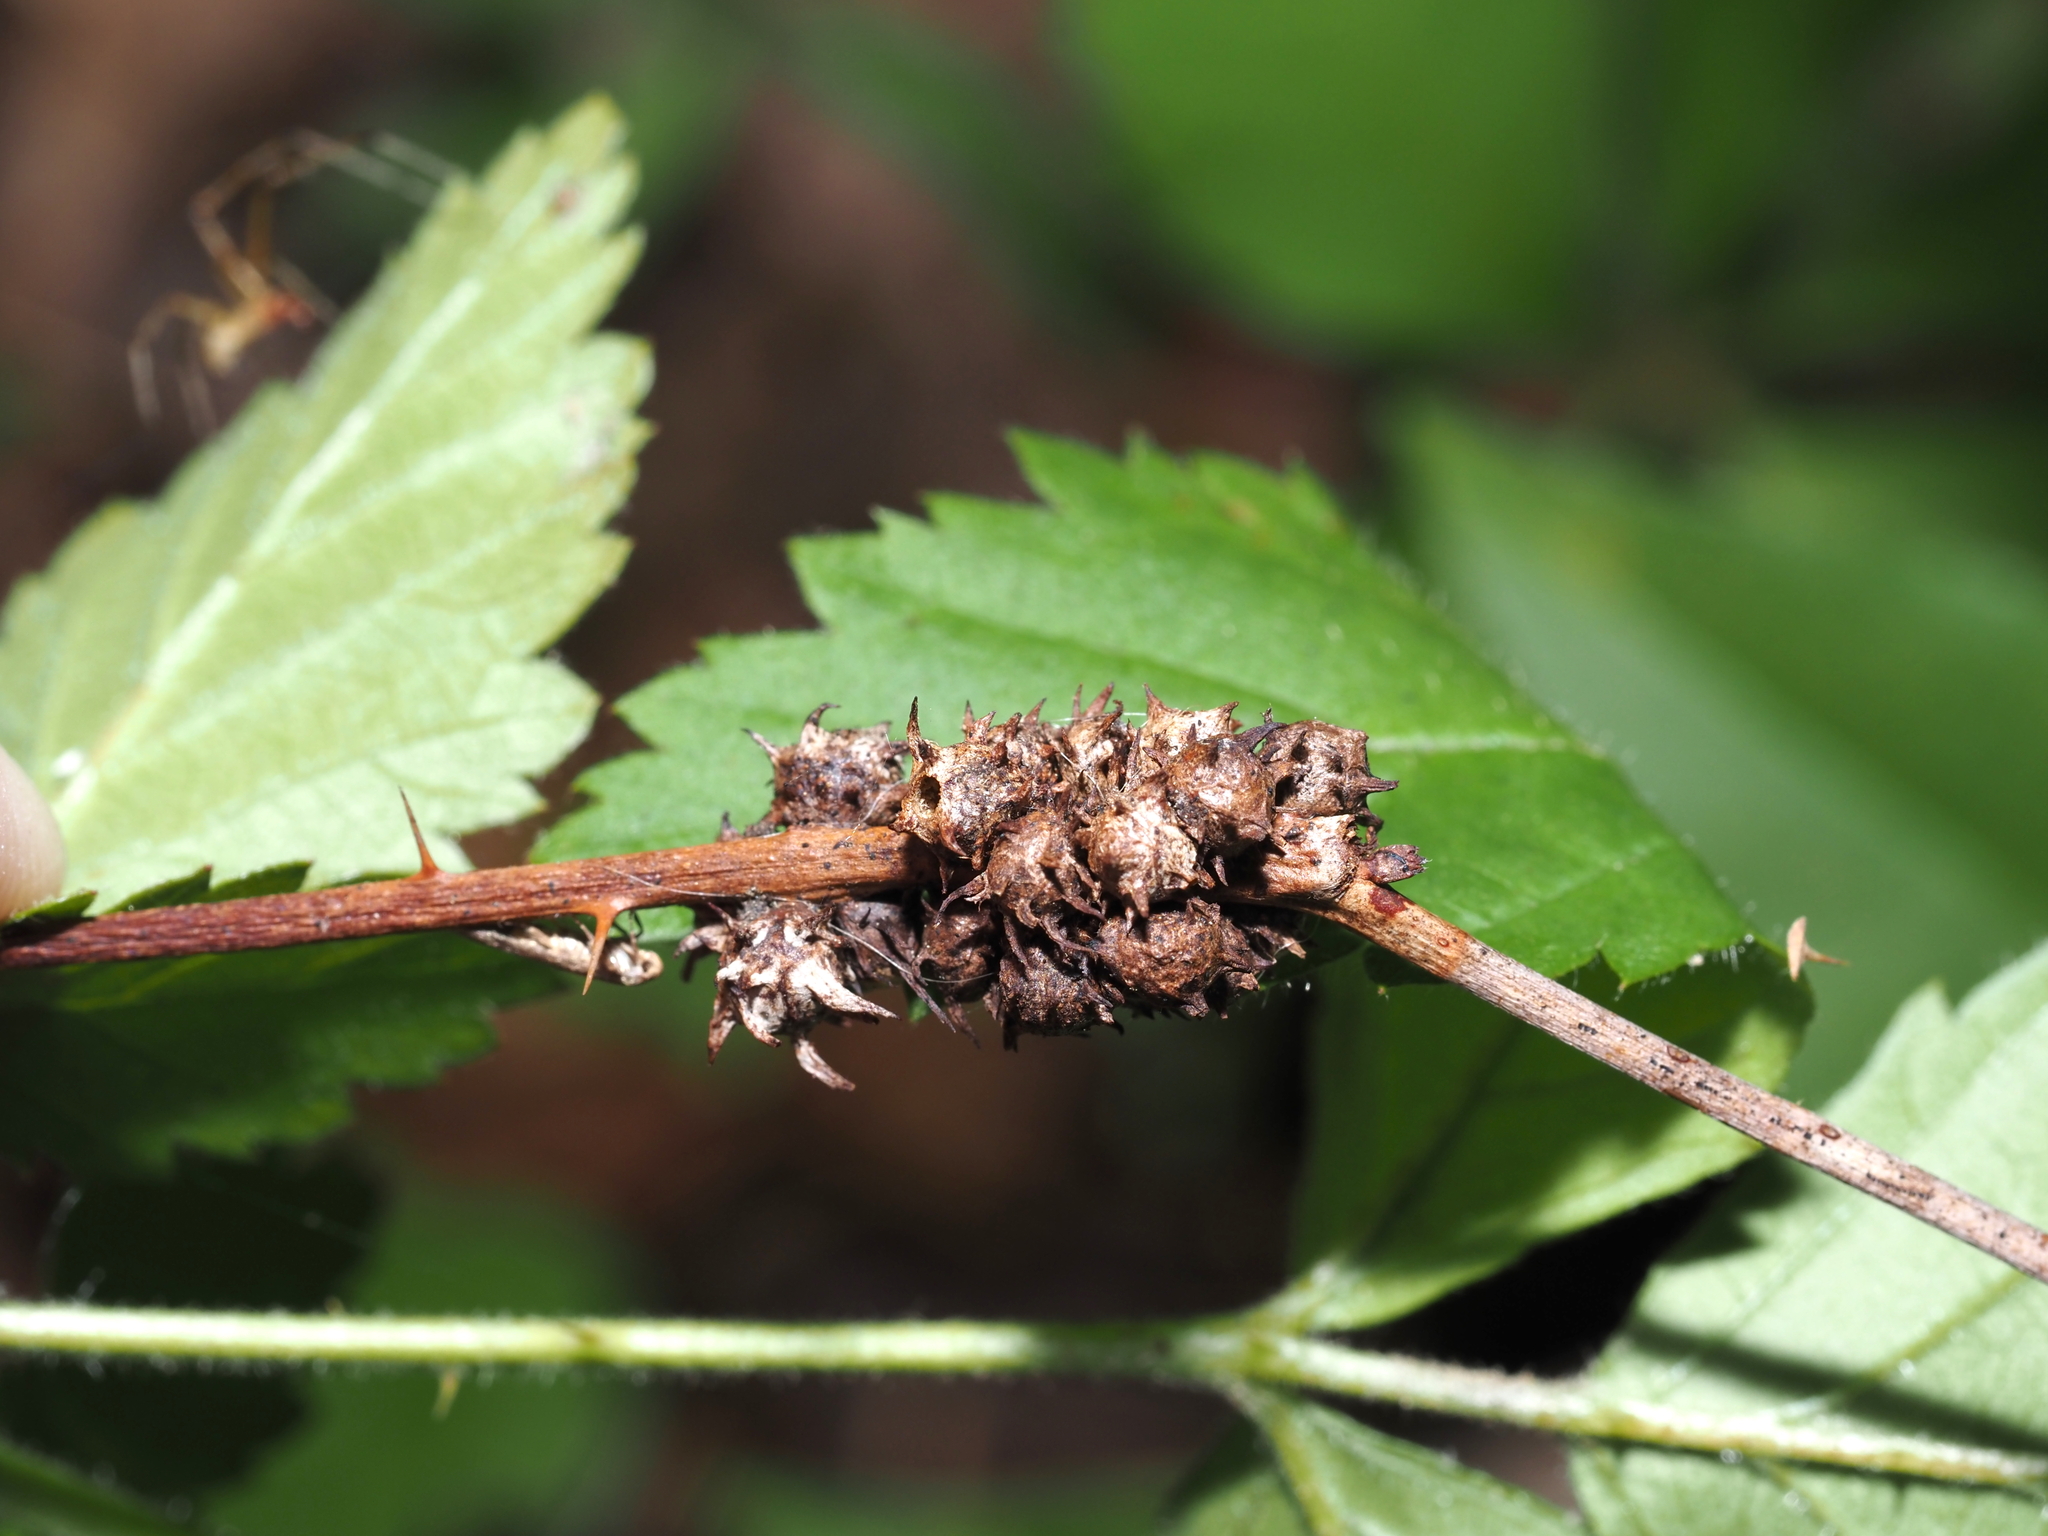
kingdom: Animalia
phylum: Arthropoda
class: Insecta
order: Hymenoptera
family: Cynipidae
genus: Diastrophus
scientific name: Diastrophus
